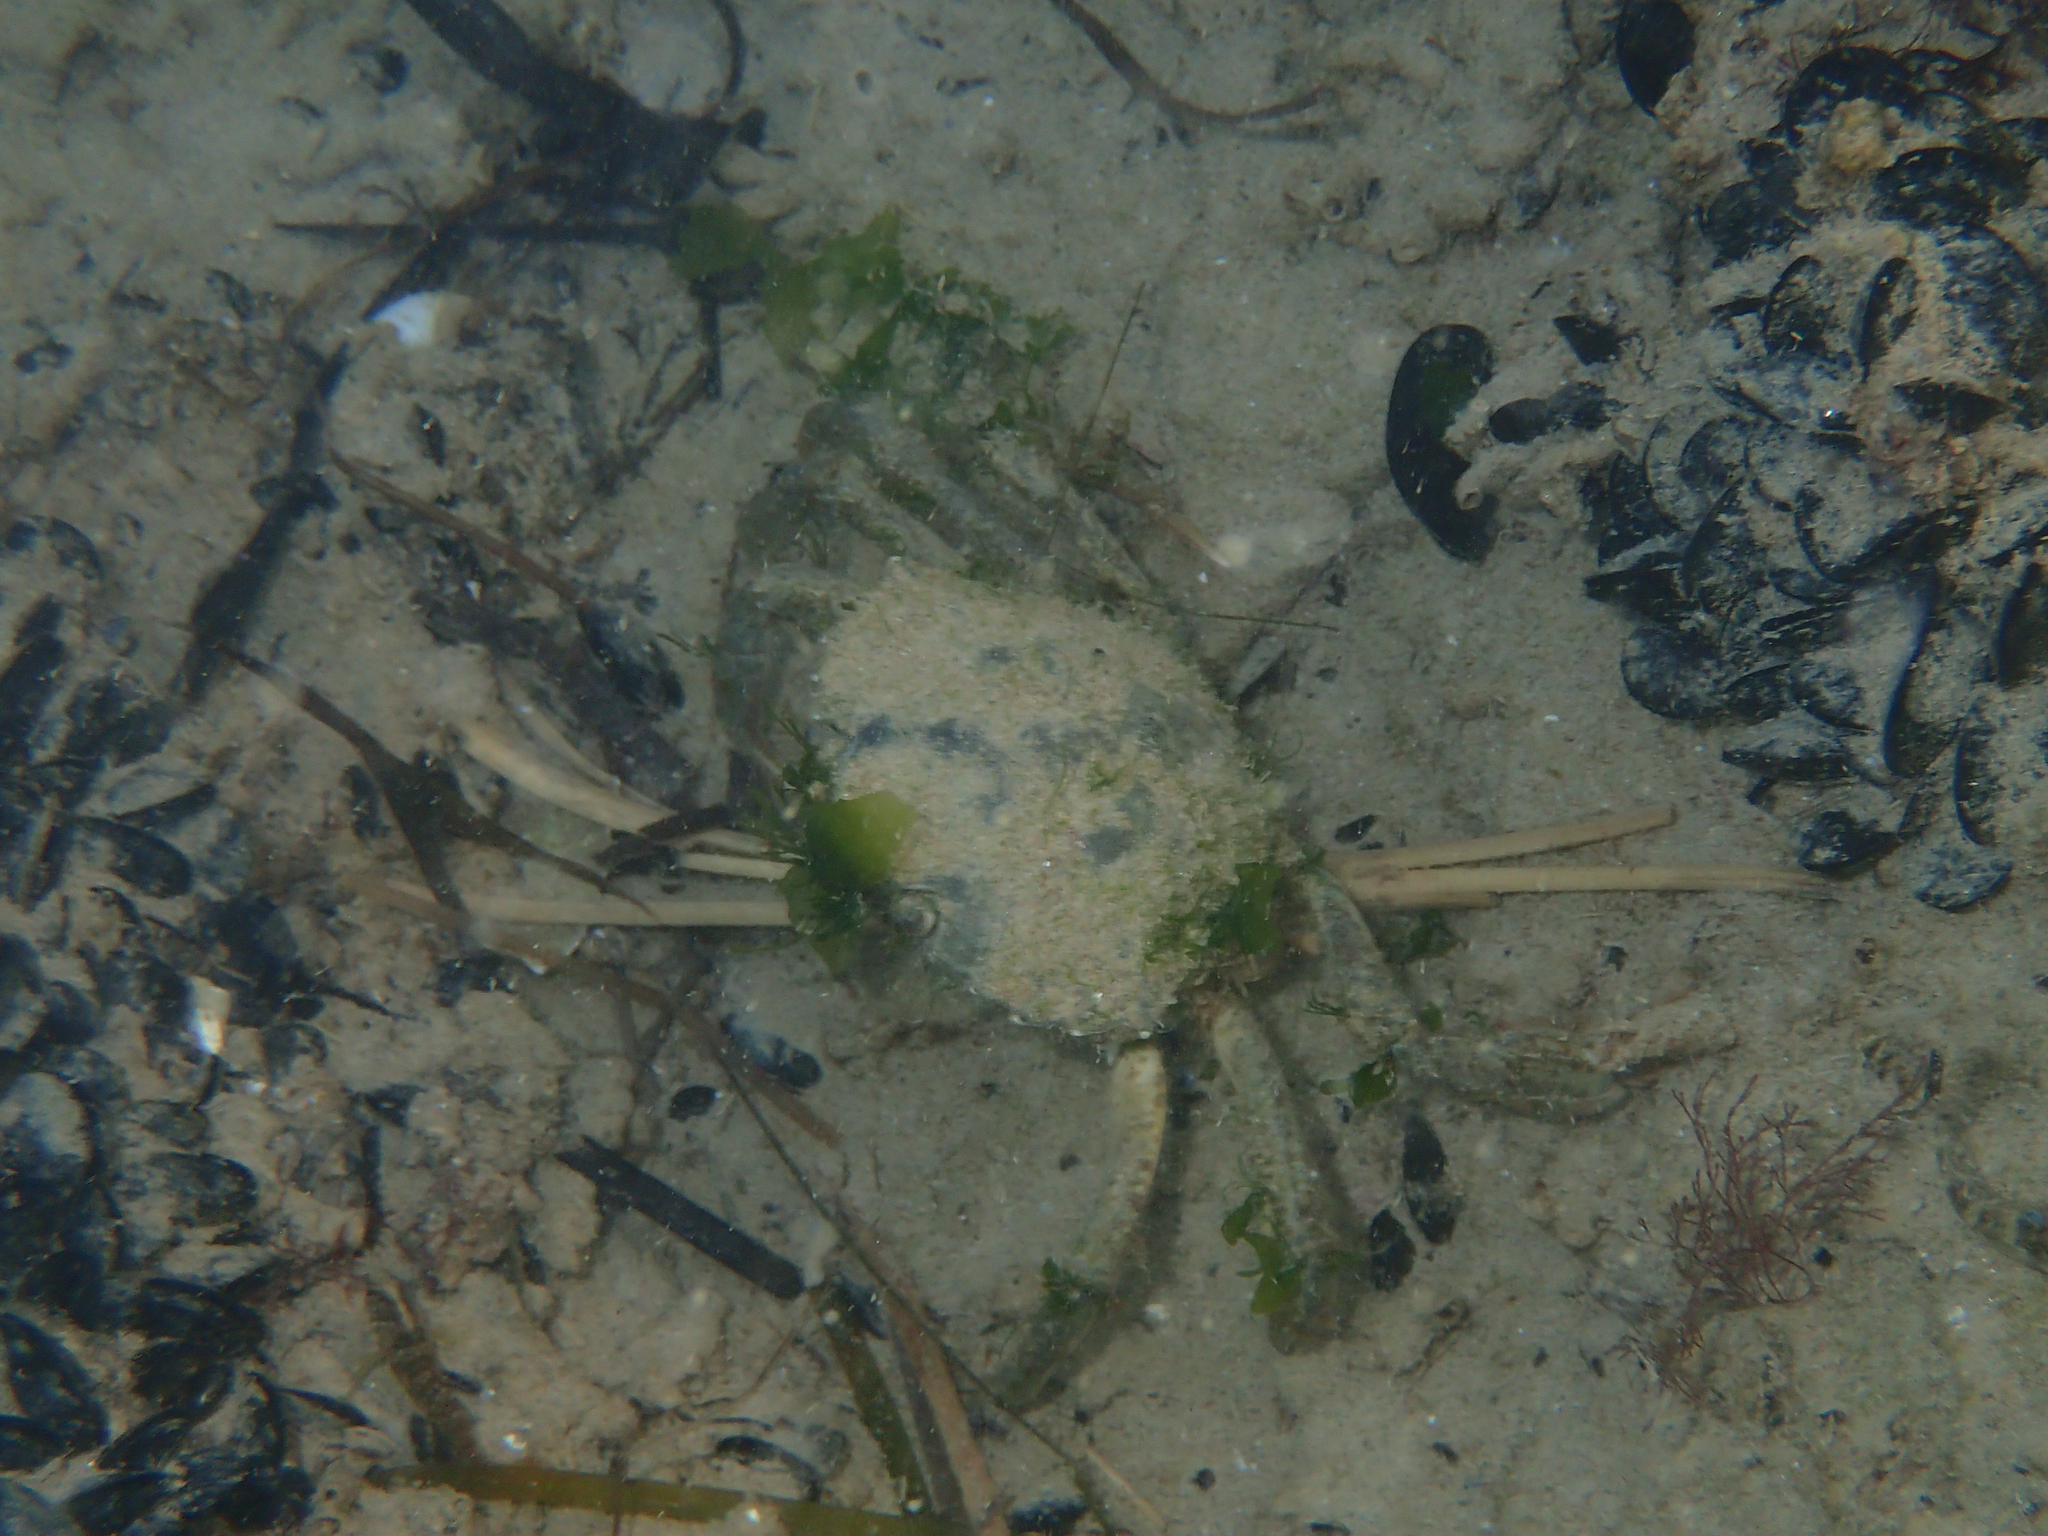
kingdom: Animalia
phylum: Arthropoda
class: Malacostraca
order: Decapoda
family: Carcinidae
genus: Carcinus
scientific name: Carcinus aestuarii
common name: Mediterranean green crab
